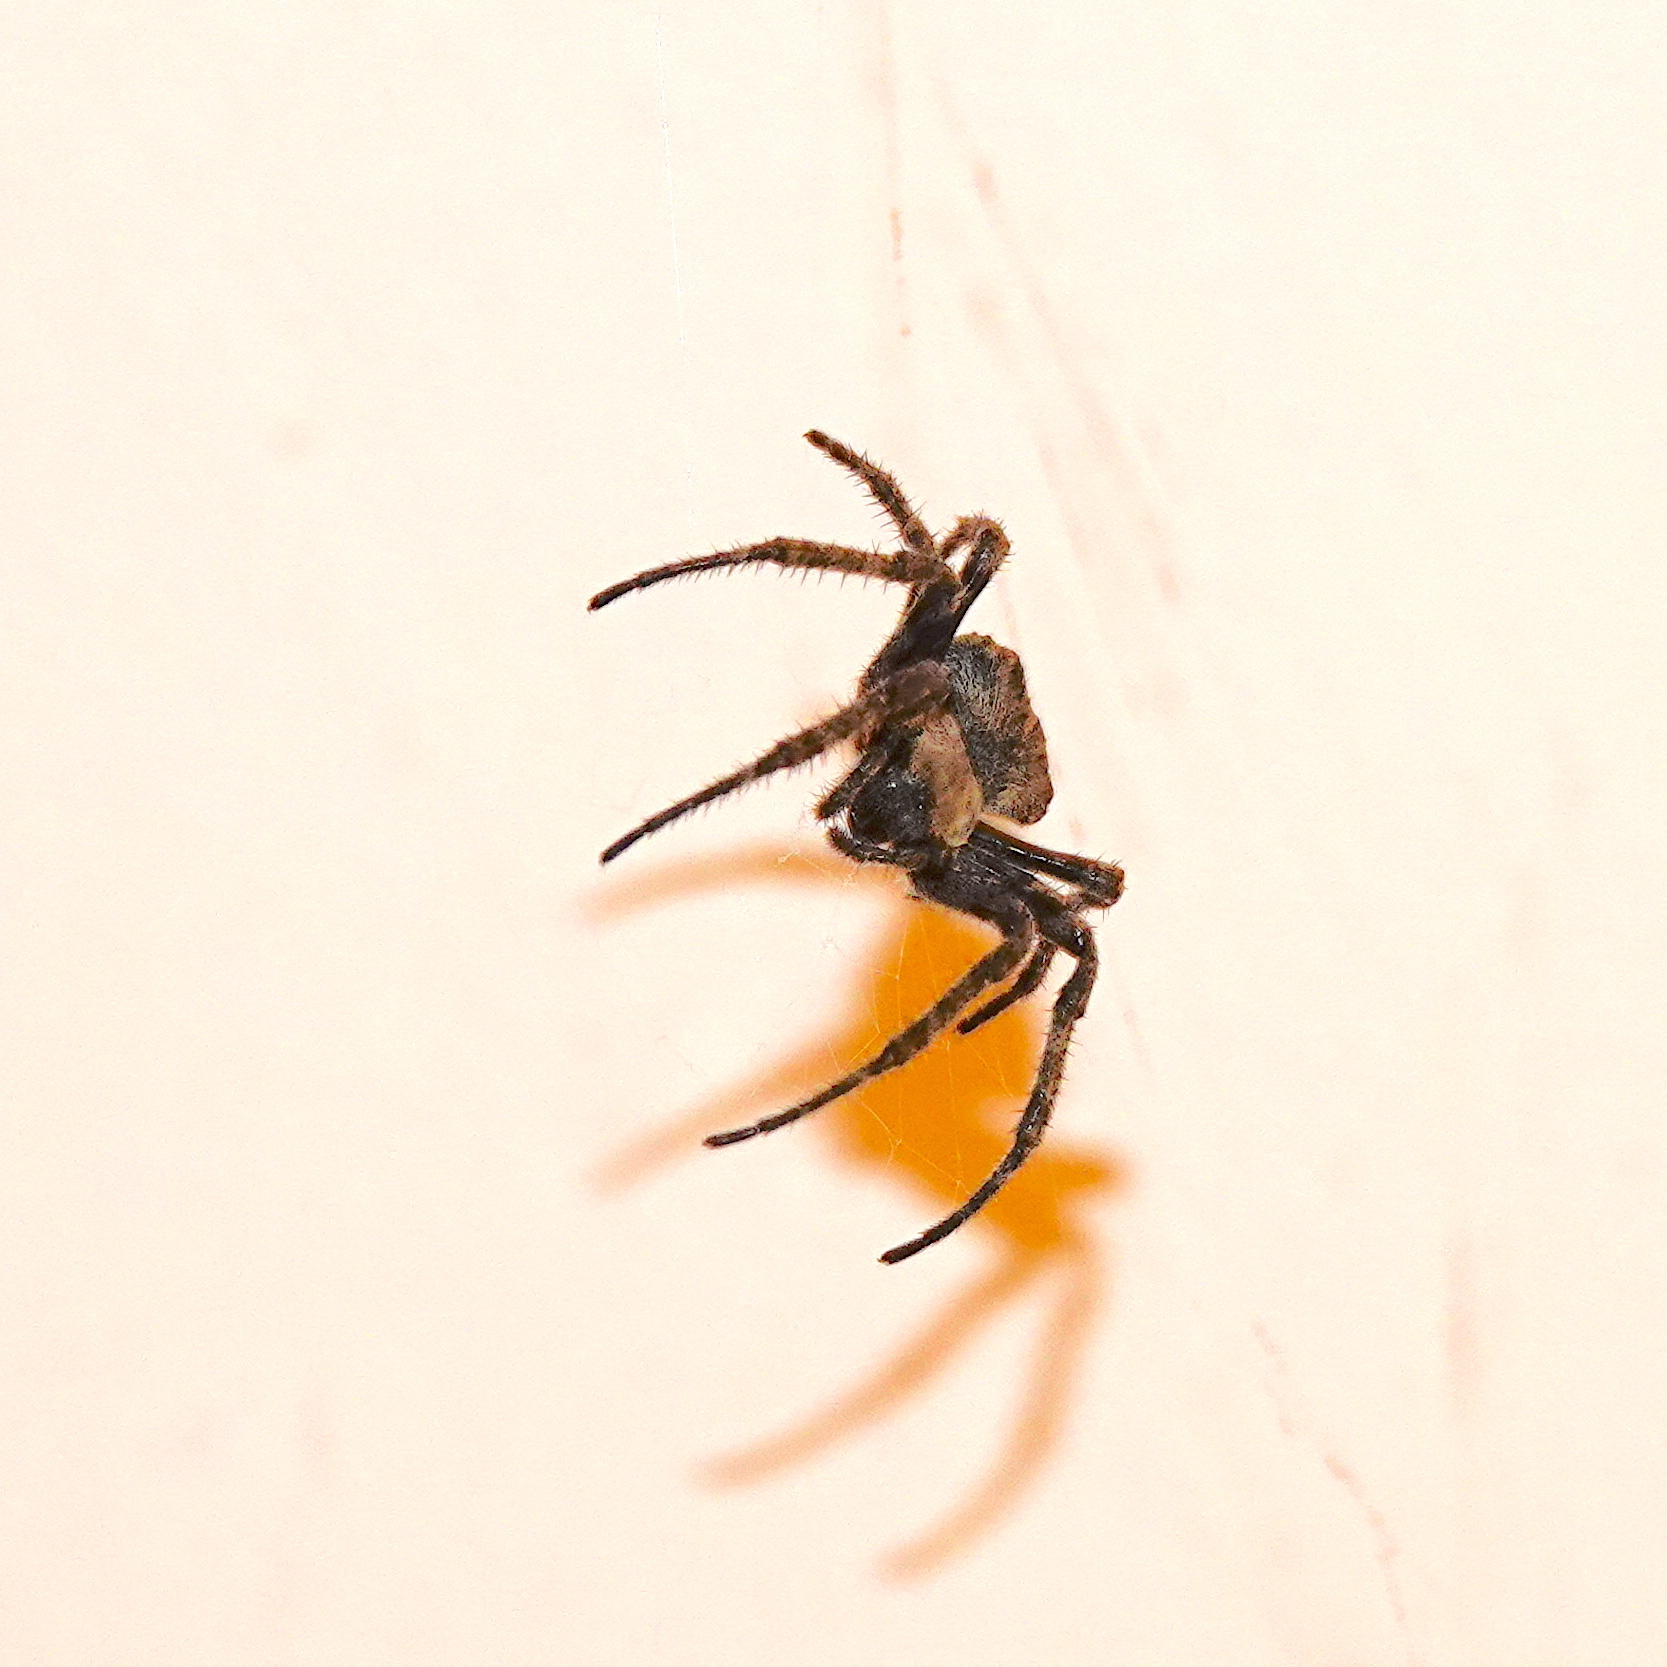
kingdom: Animalia
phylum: Arthropoda
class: Arachnida
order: Araneae
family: Araneidae
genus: Araneus
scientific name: Araneus ventricosus
